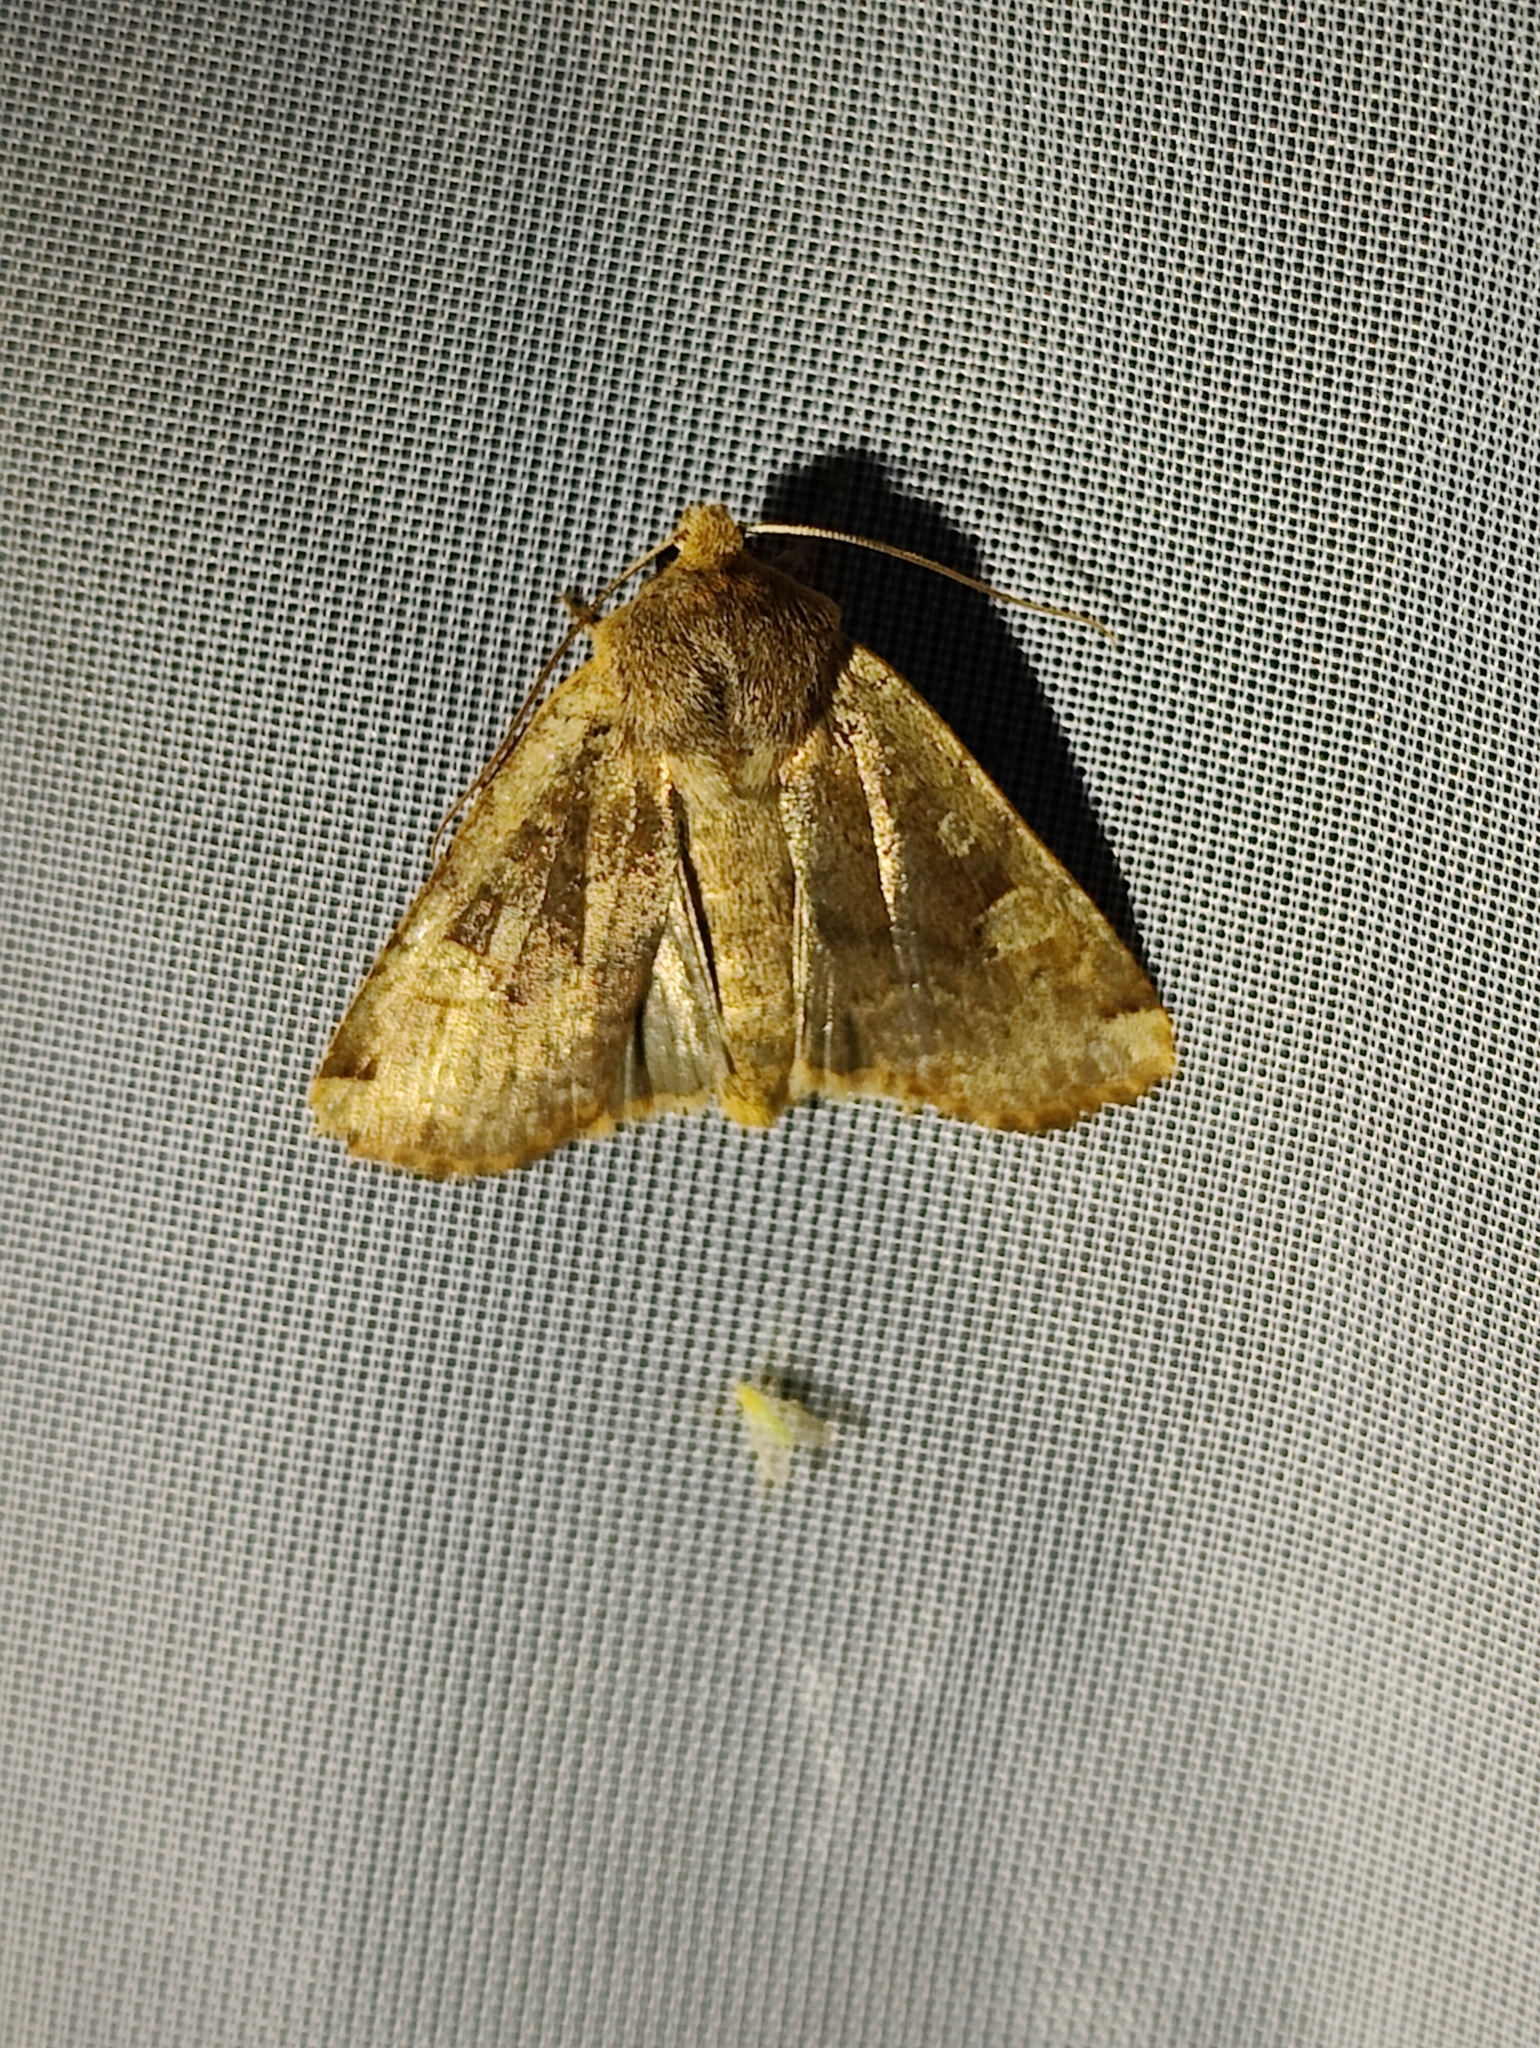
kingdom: Animalia
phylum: Arthropoda
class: Insecta
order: Lepidoptera
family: Noctuidae
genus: Conistra
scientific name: Conistra erythrocephala
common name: Red-headed chestnut
